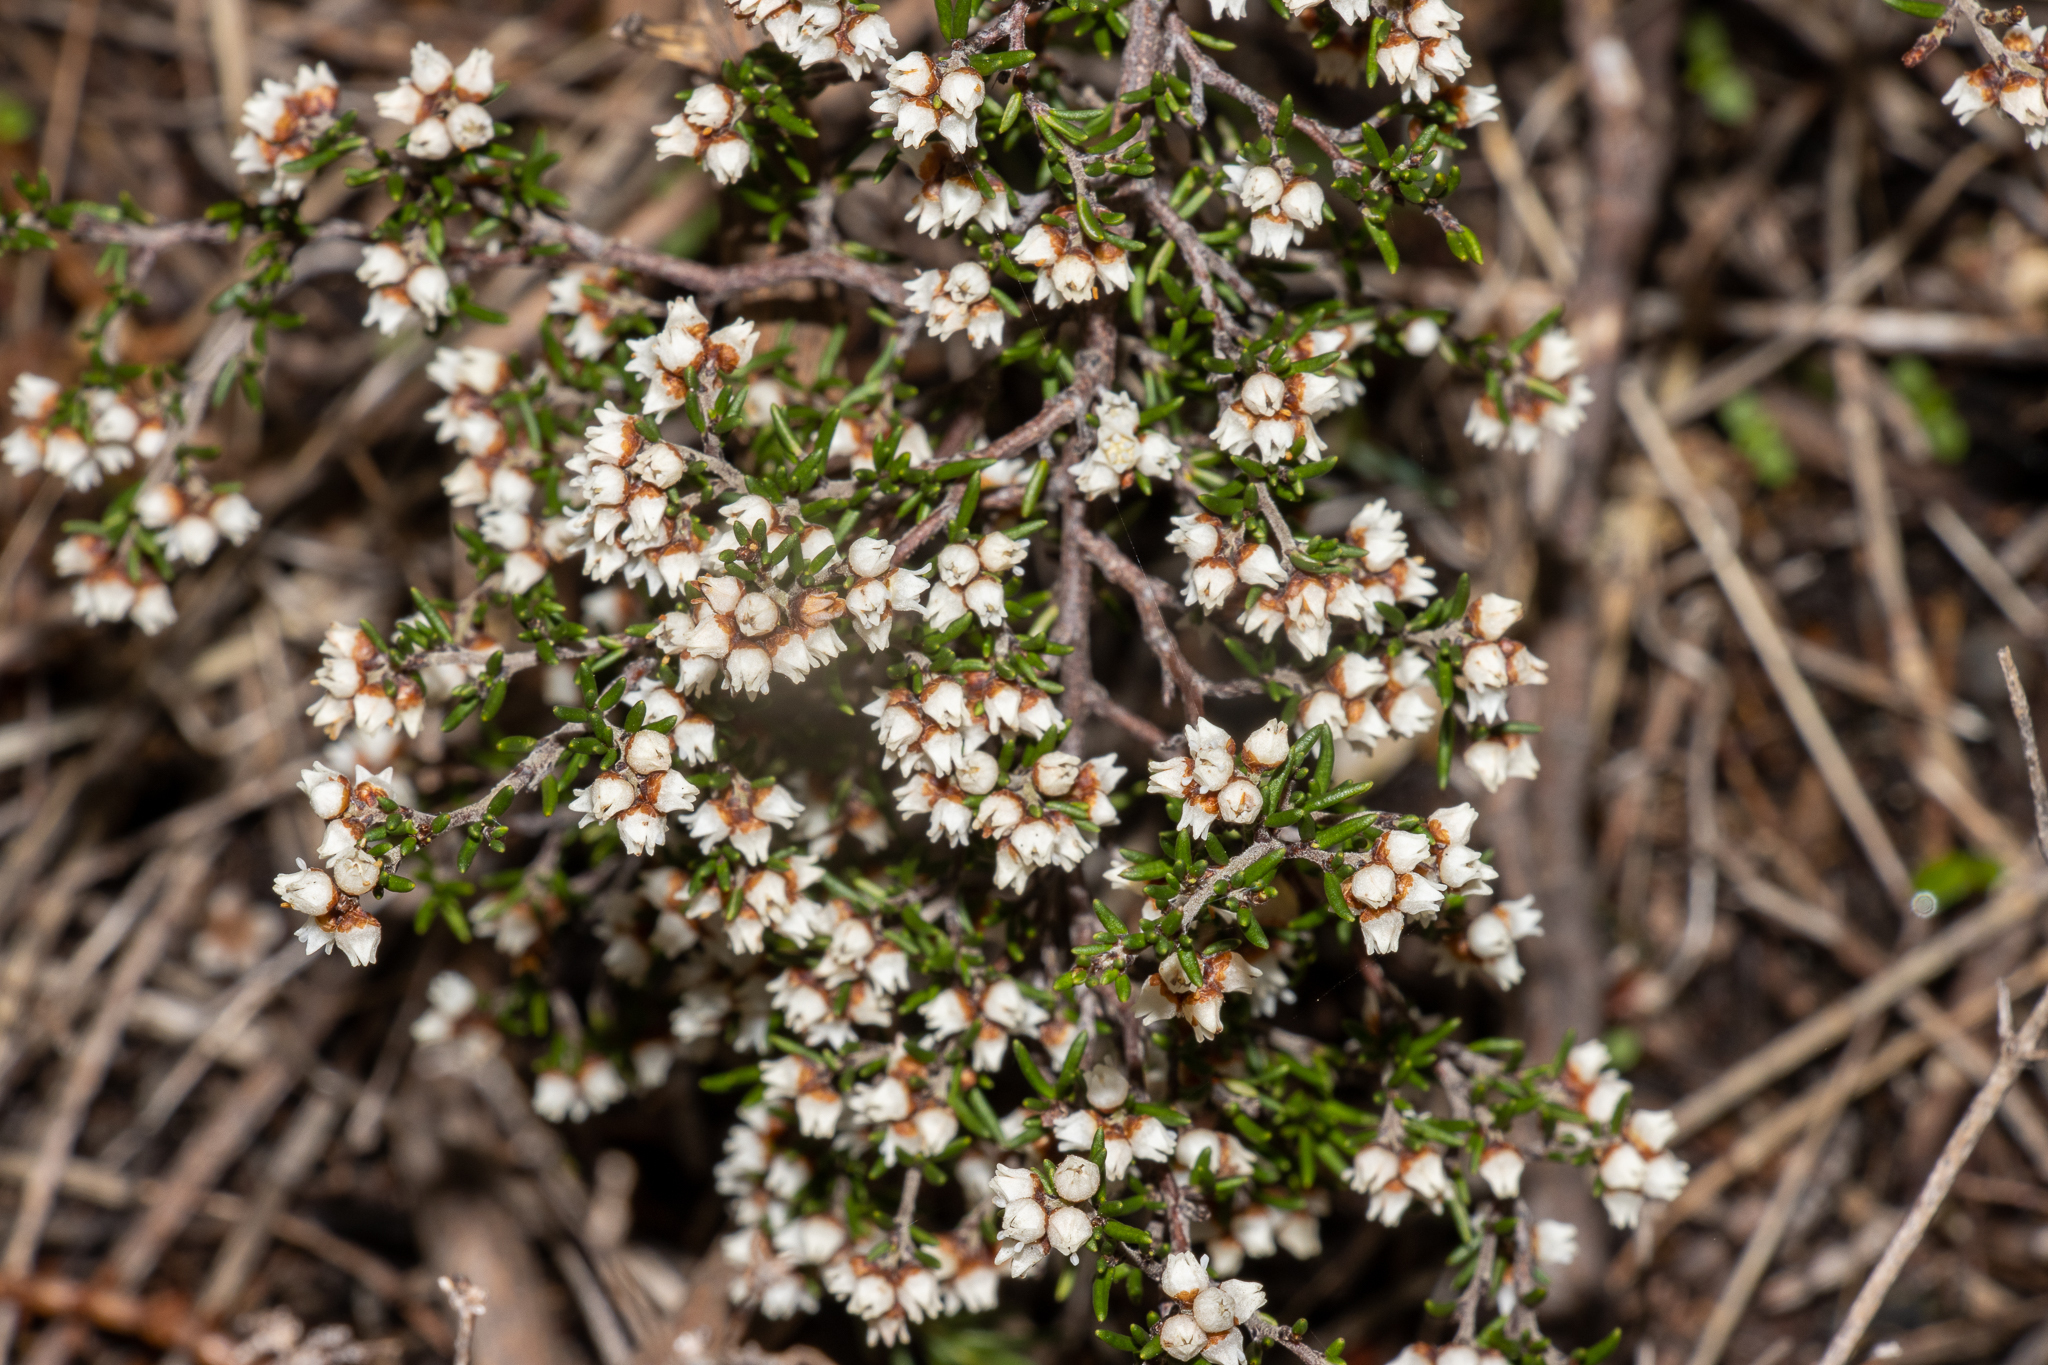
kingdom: Plantae
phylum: Tracheophyta
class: Magnoliopsida
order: Rosales
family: Rhamnaceae
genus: Cryptandra
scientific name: Cryptandra tomentosa
